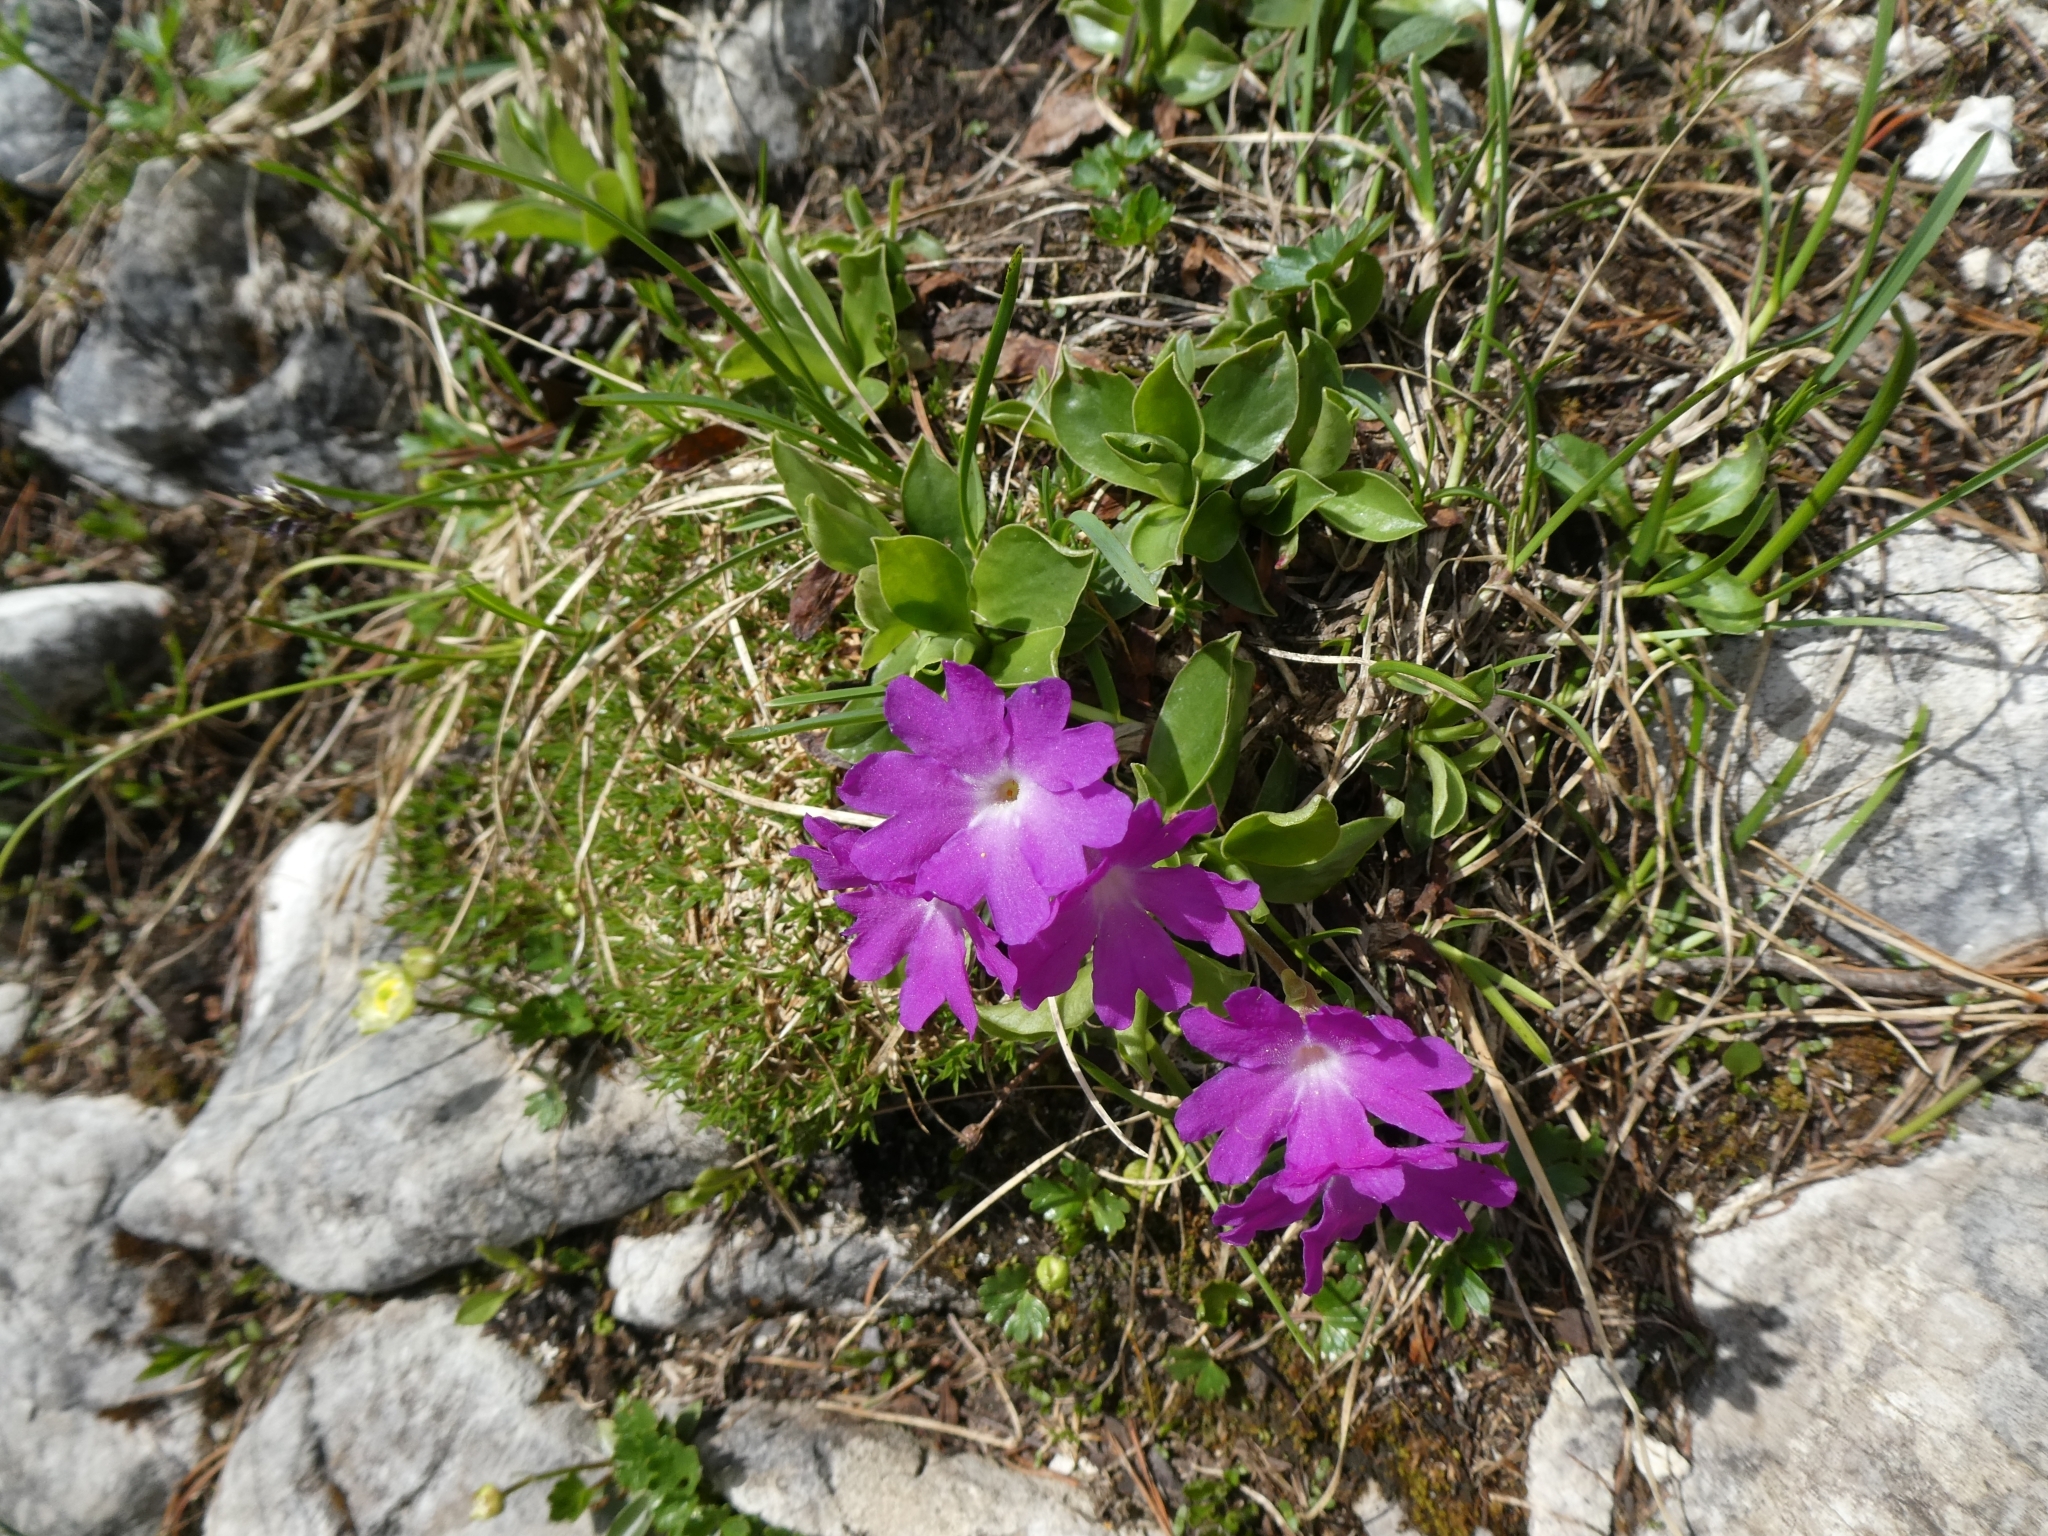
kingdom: Plantae
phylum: Tracheophyta
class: Magnoliopsida
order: Ericales
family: Primulaceae
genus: Primula
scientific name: Primula clusiana
